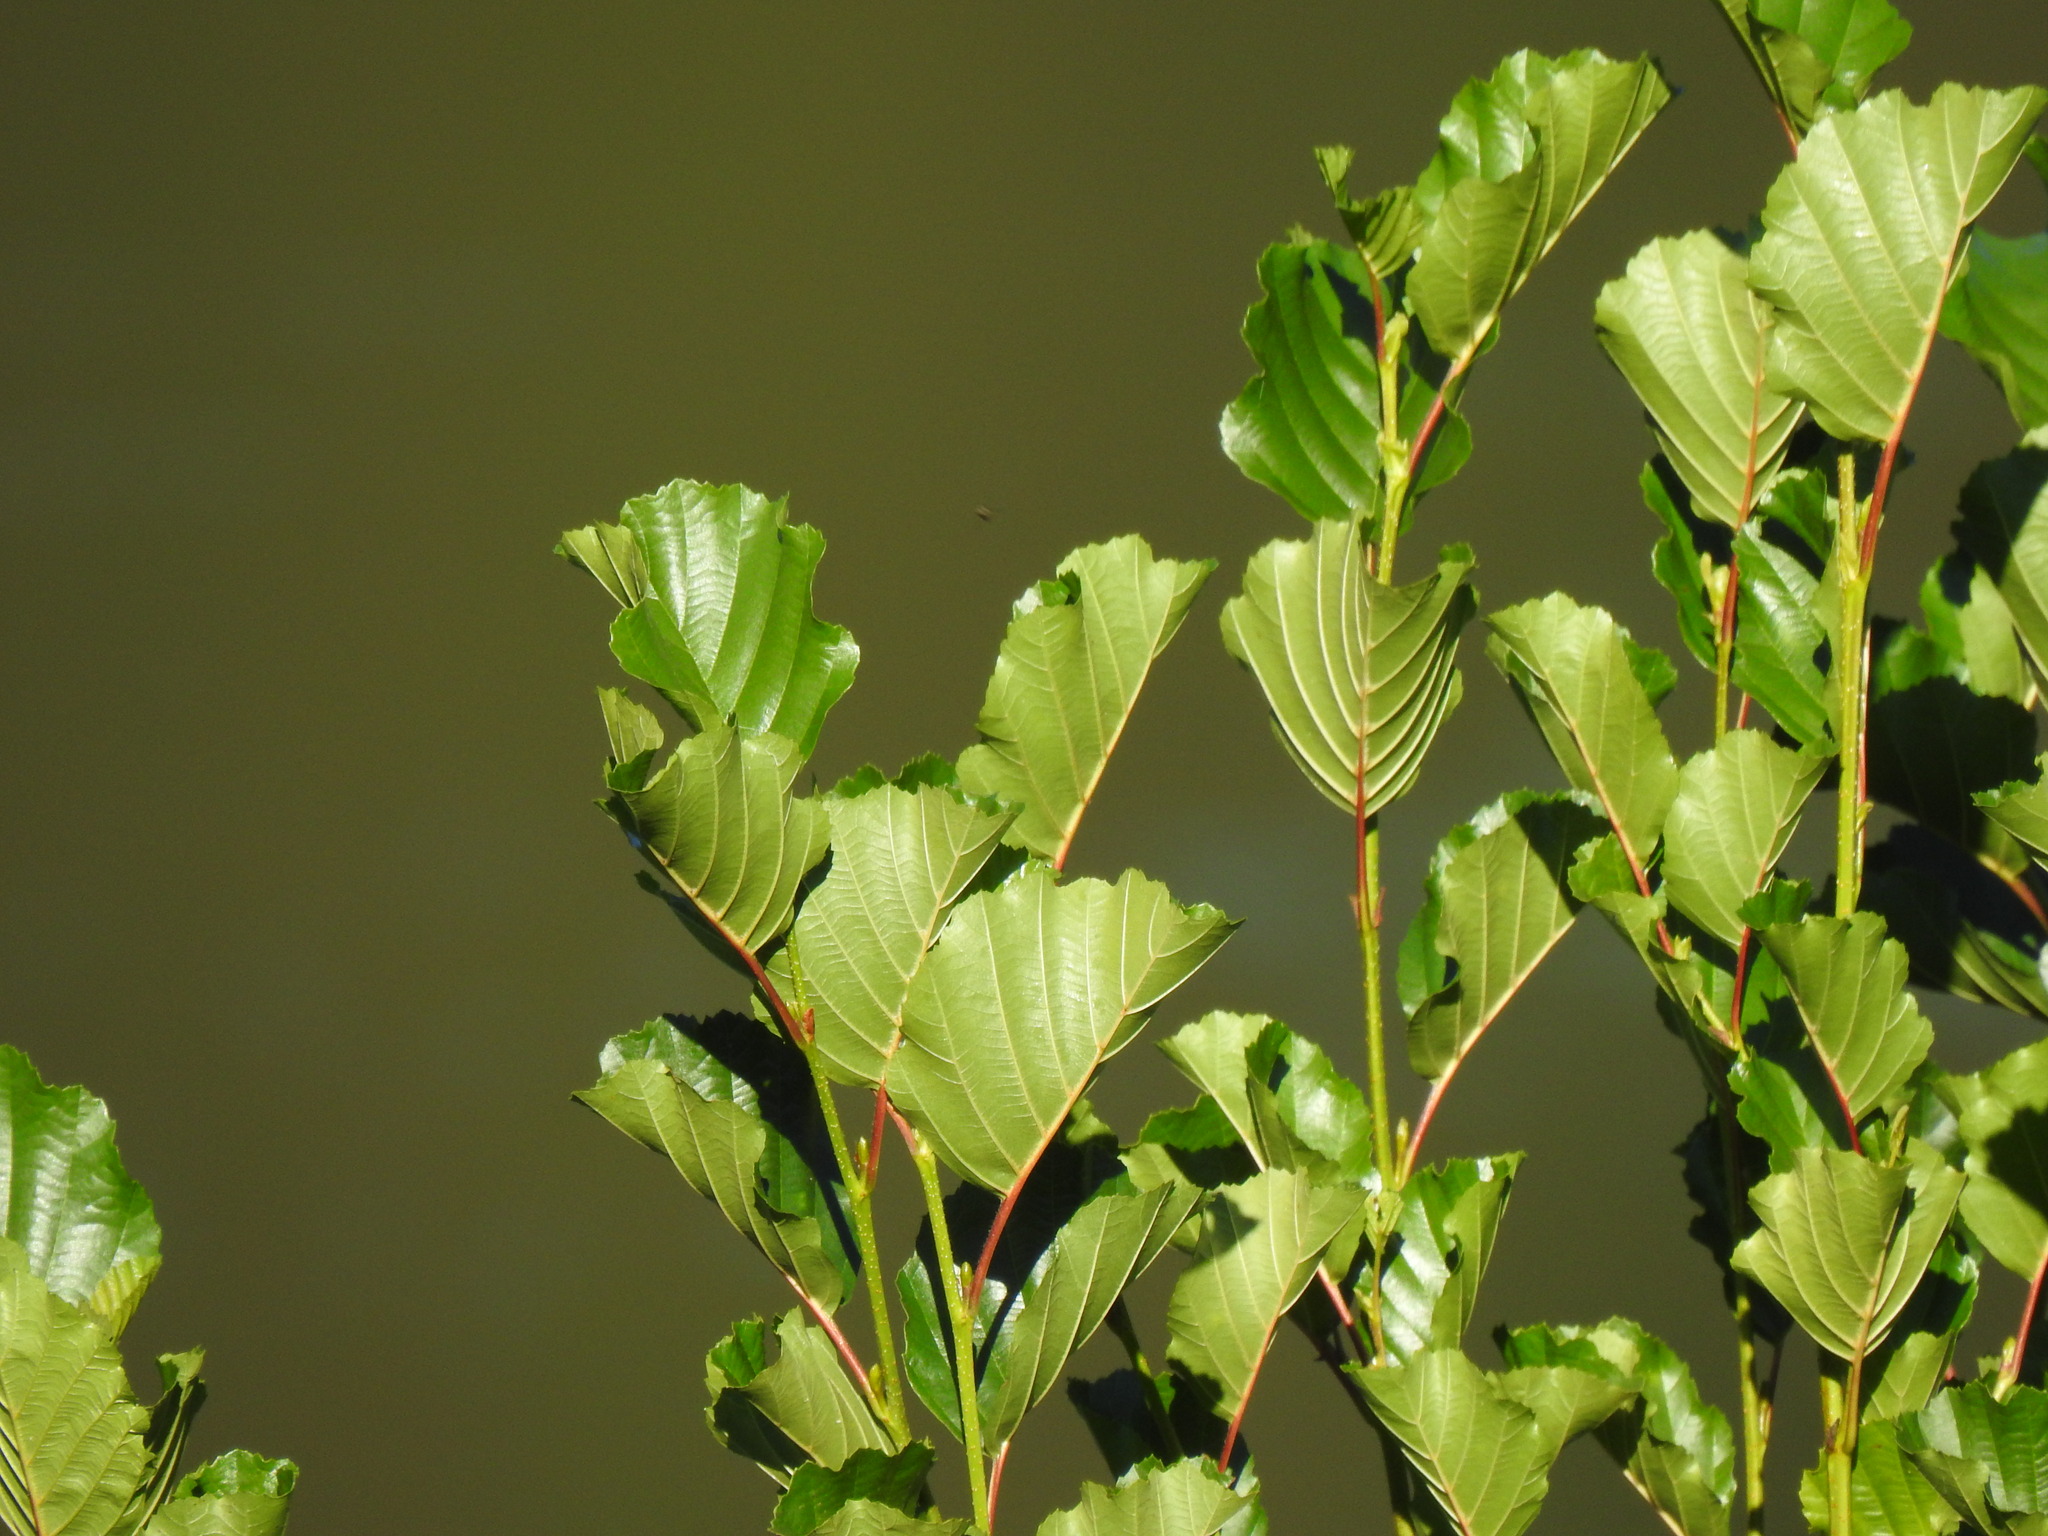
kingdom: Plantae
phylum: Tracheophyta
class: Magnoliopsida
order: Fagales
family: Betulaceae
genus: Alnus
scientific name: Alnus lusitanica
